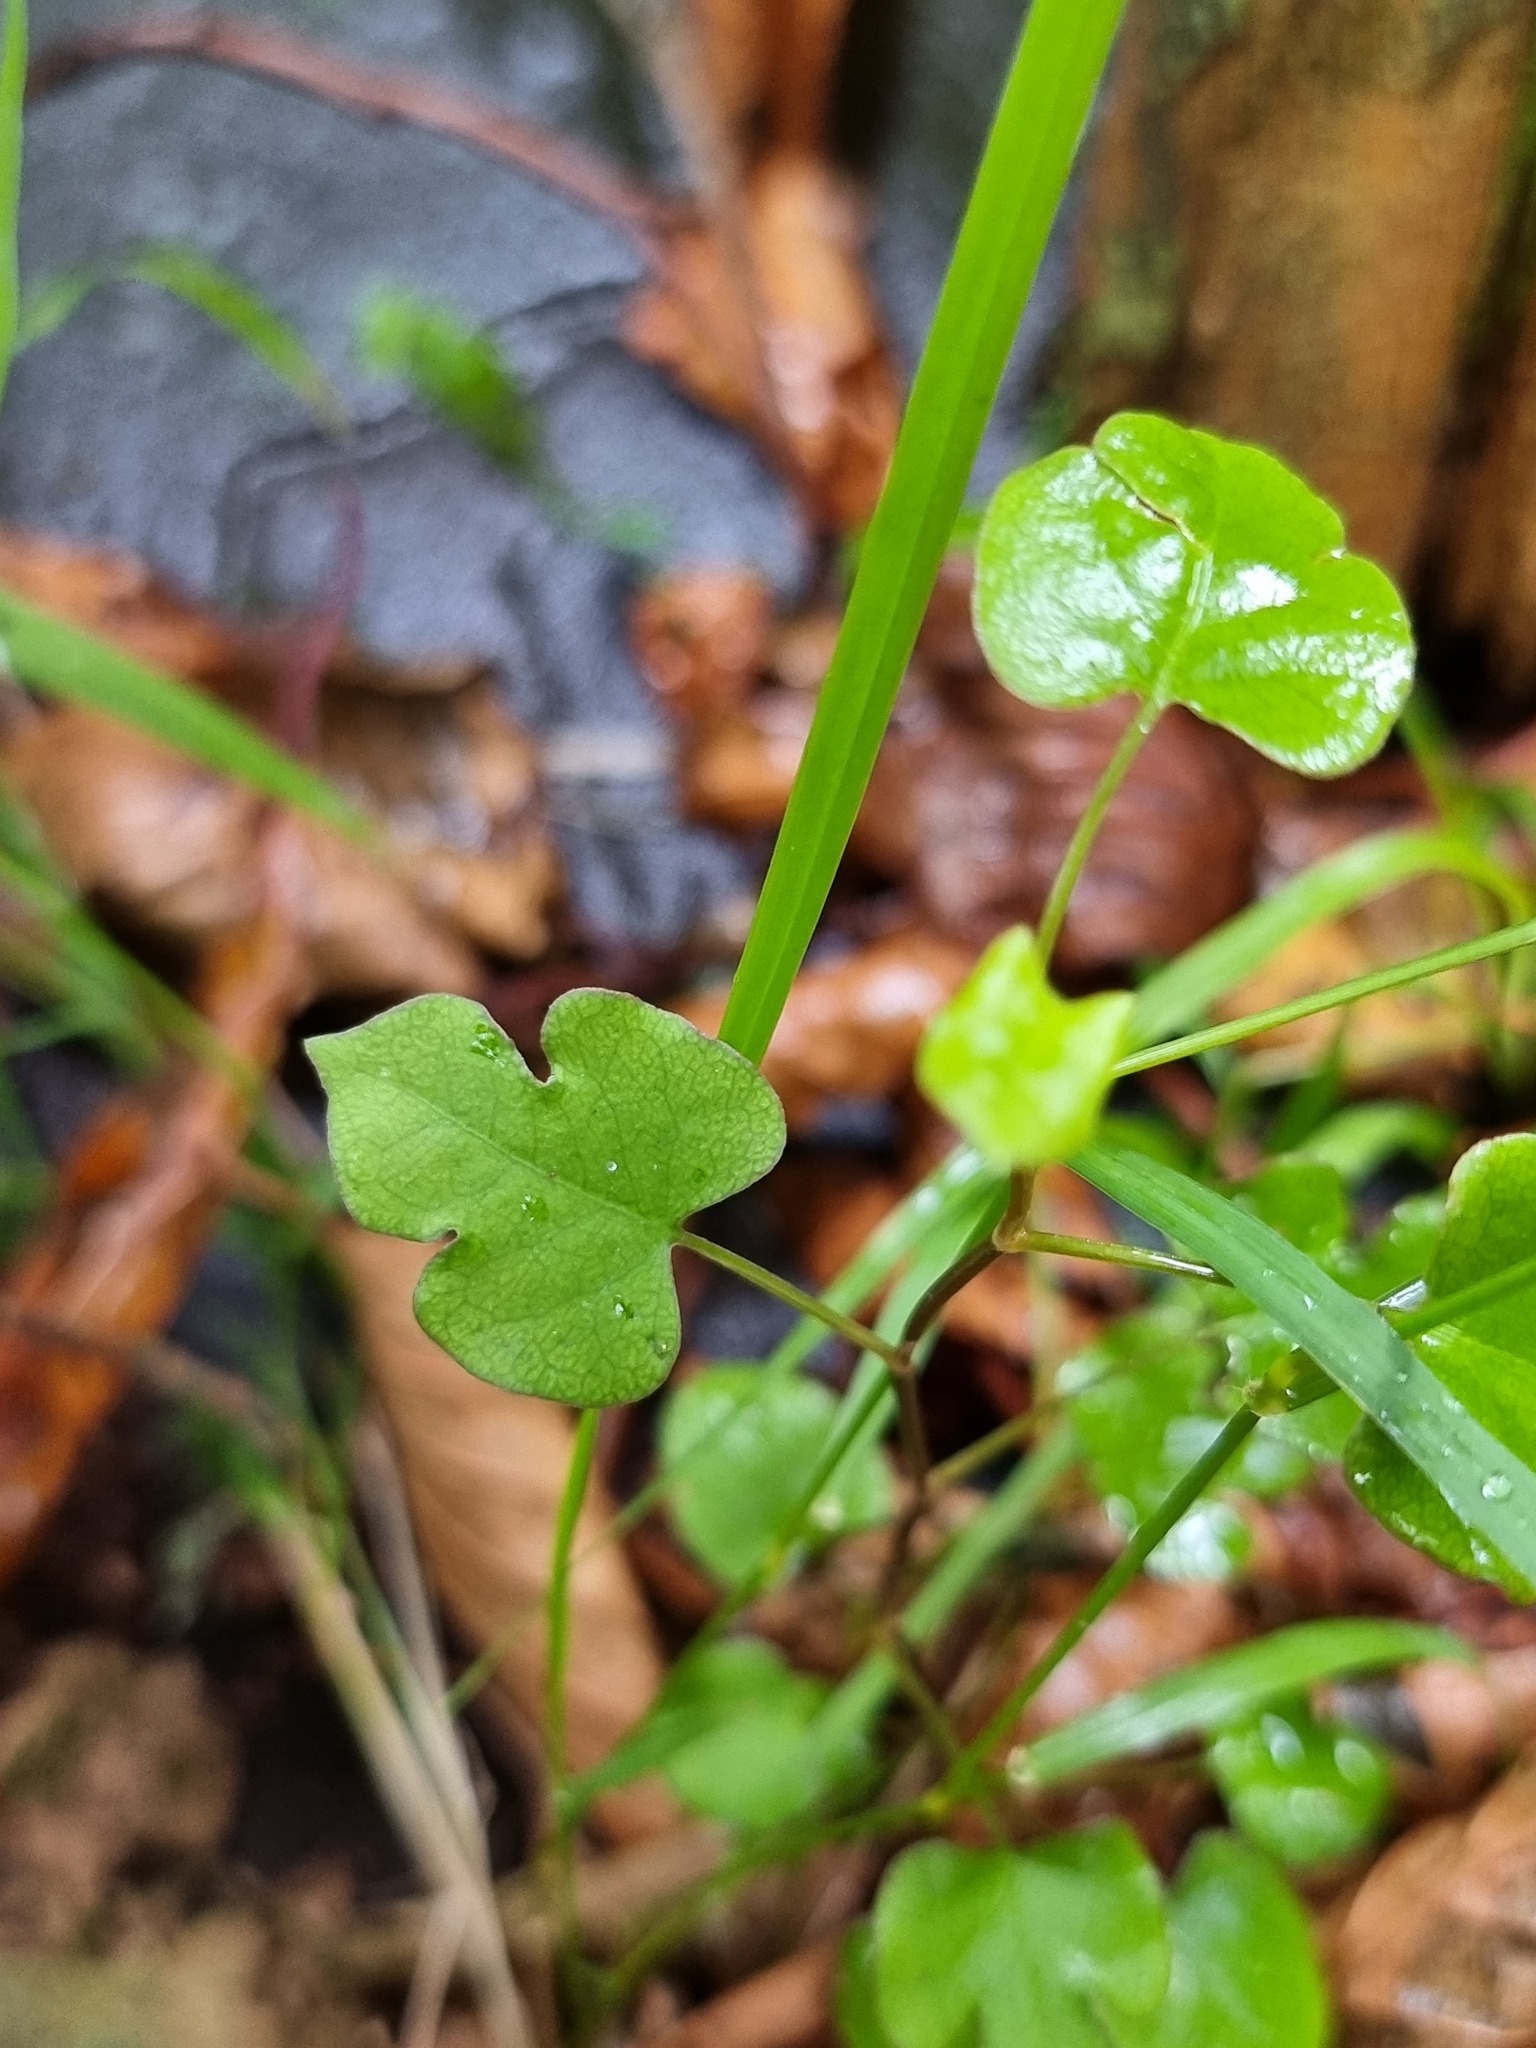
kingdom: Plantae
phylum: Tracheophyta
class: Magnoliopsida
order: Caryophyllales
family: Polygonaceae
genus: Muehlenbeckia
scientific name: Muehlenbeckia australis
